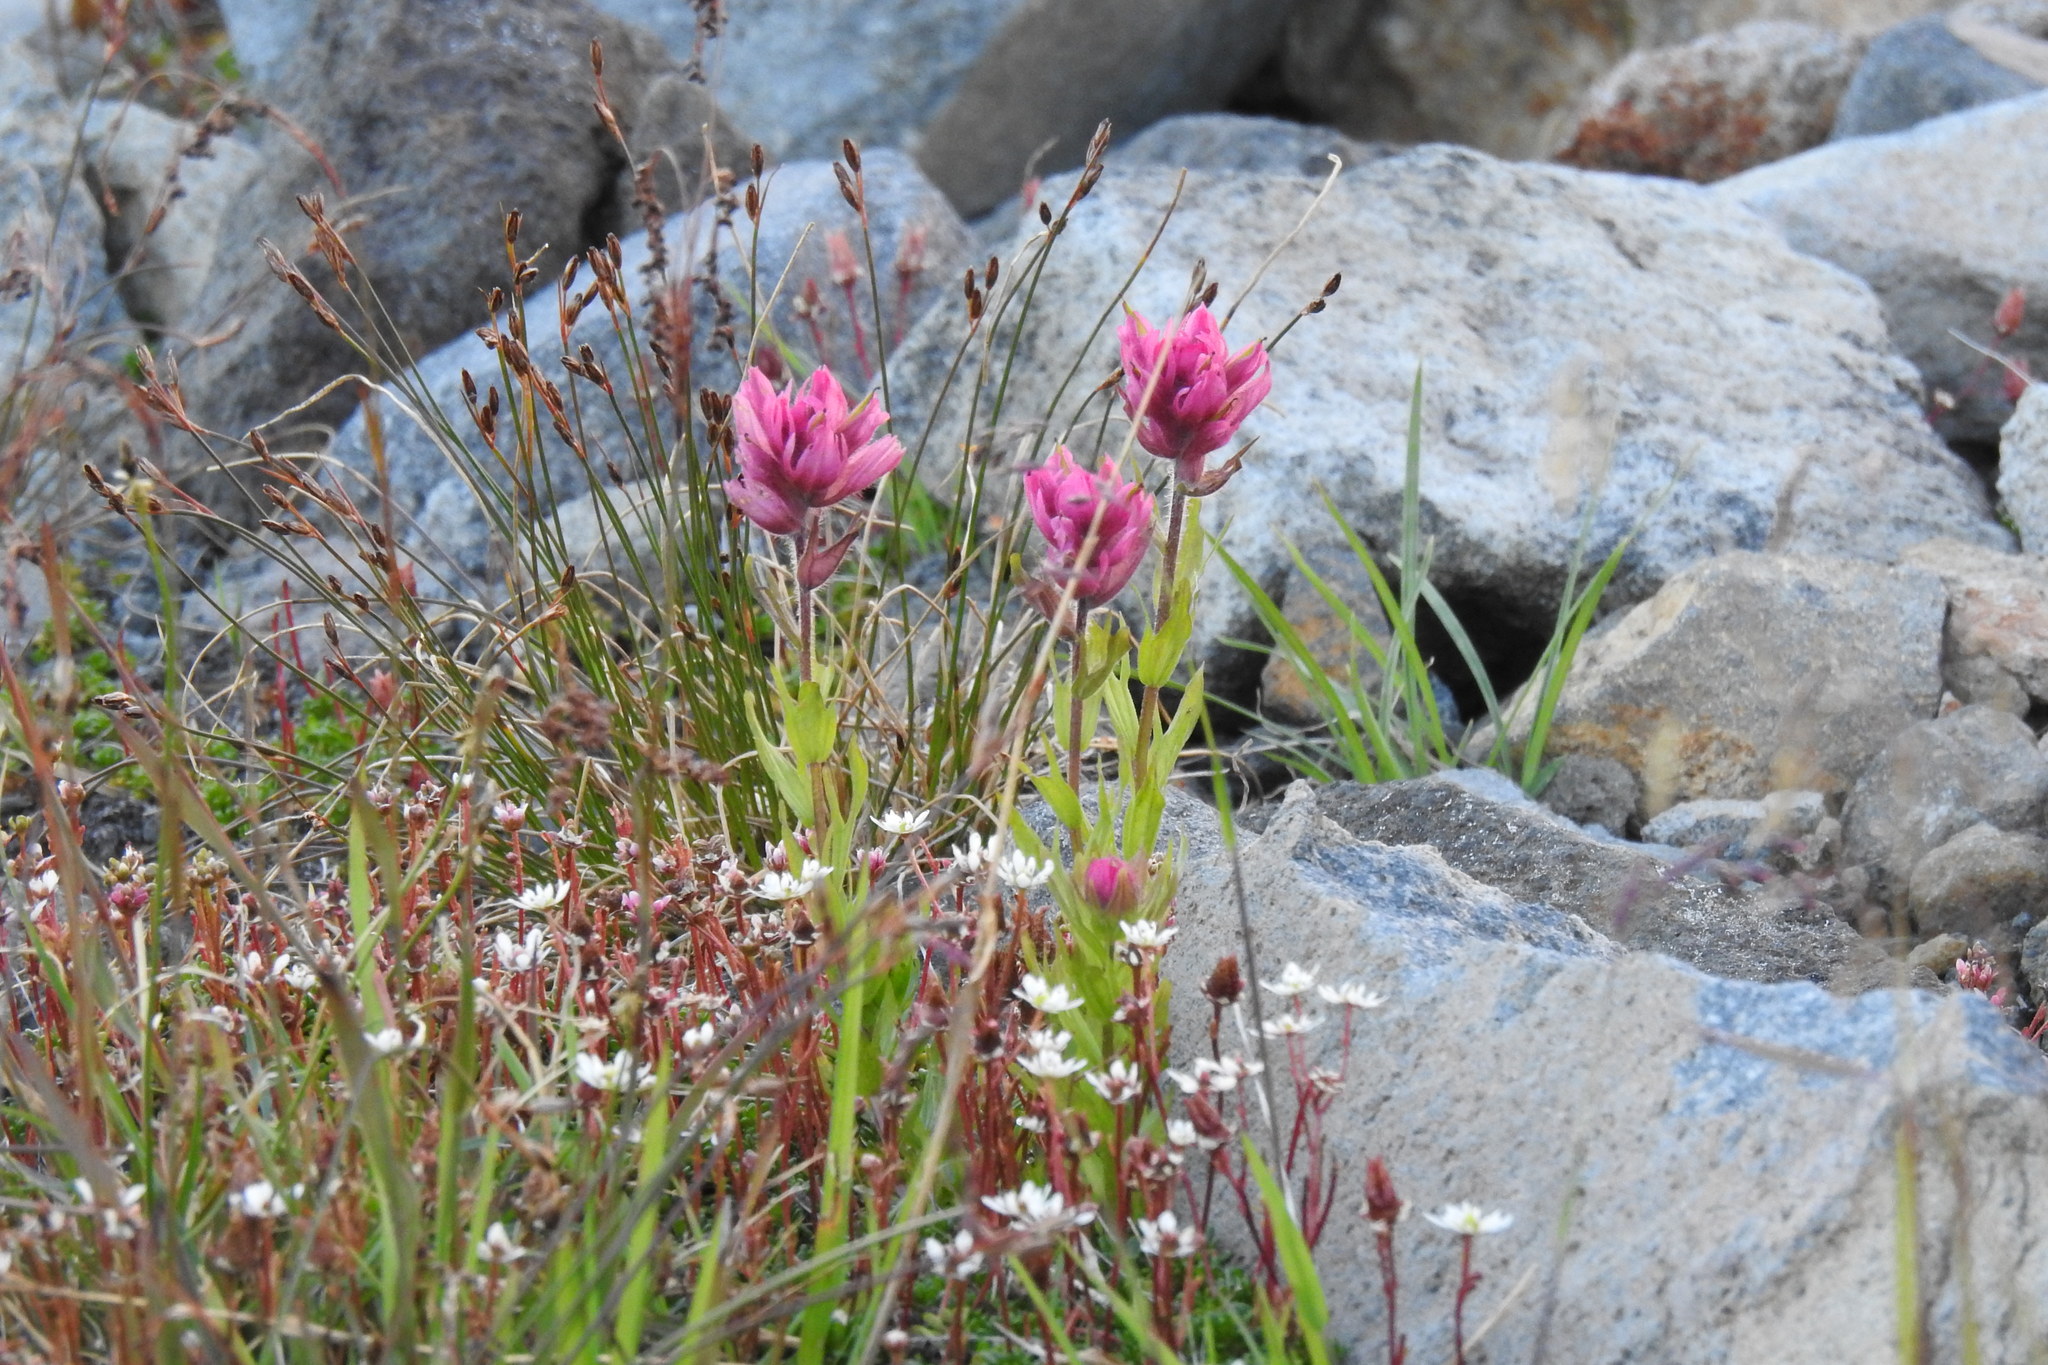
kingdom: Plantae
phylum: Tracheophyta
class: Magnoliopsida
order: Lamiales
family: Orobanchaceae
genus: Castilleja
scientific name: Castilleja parviflora
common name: Mountain paintbrush
